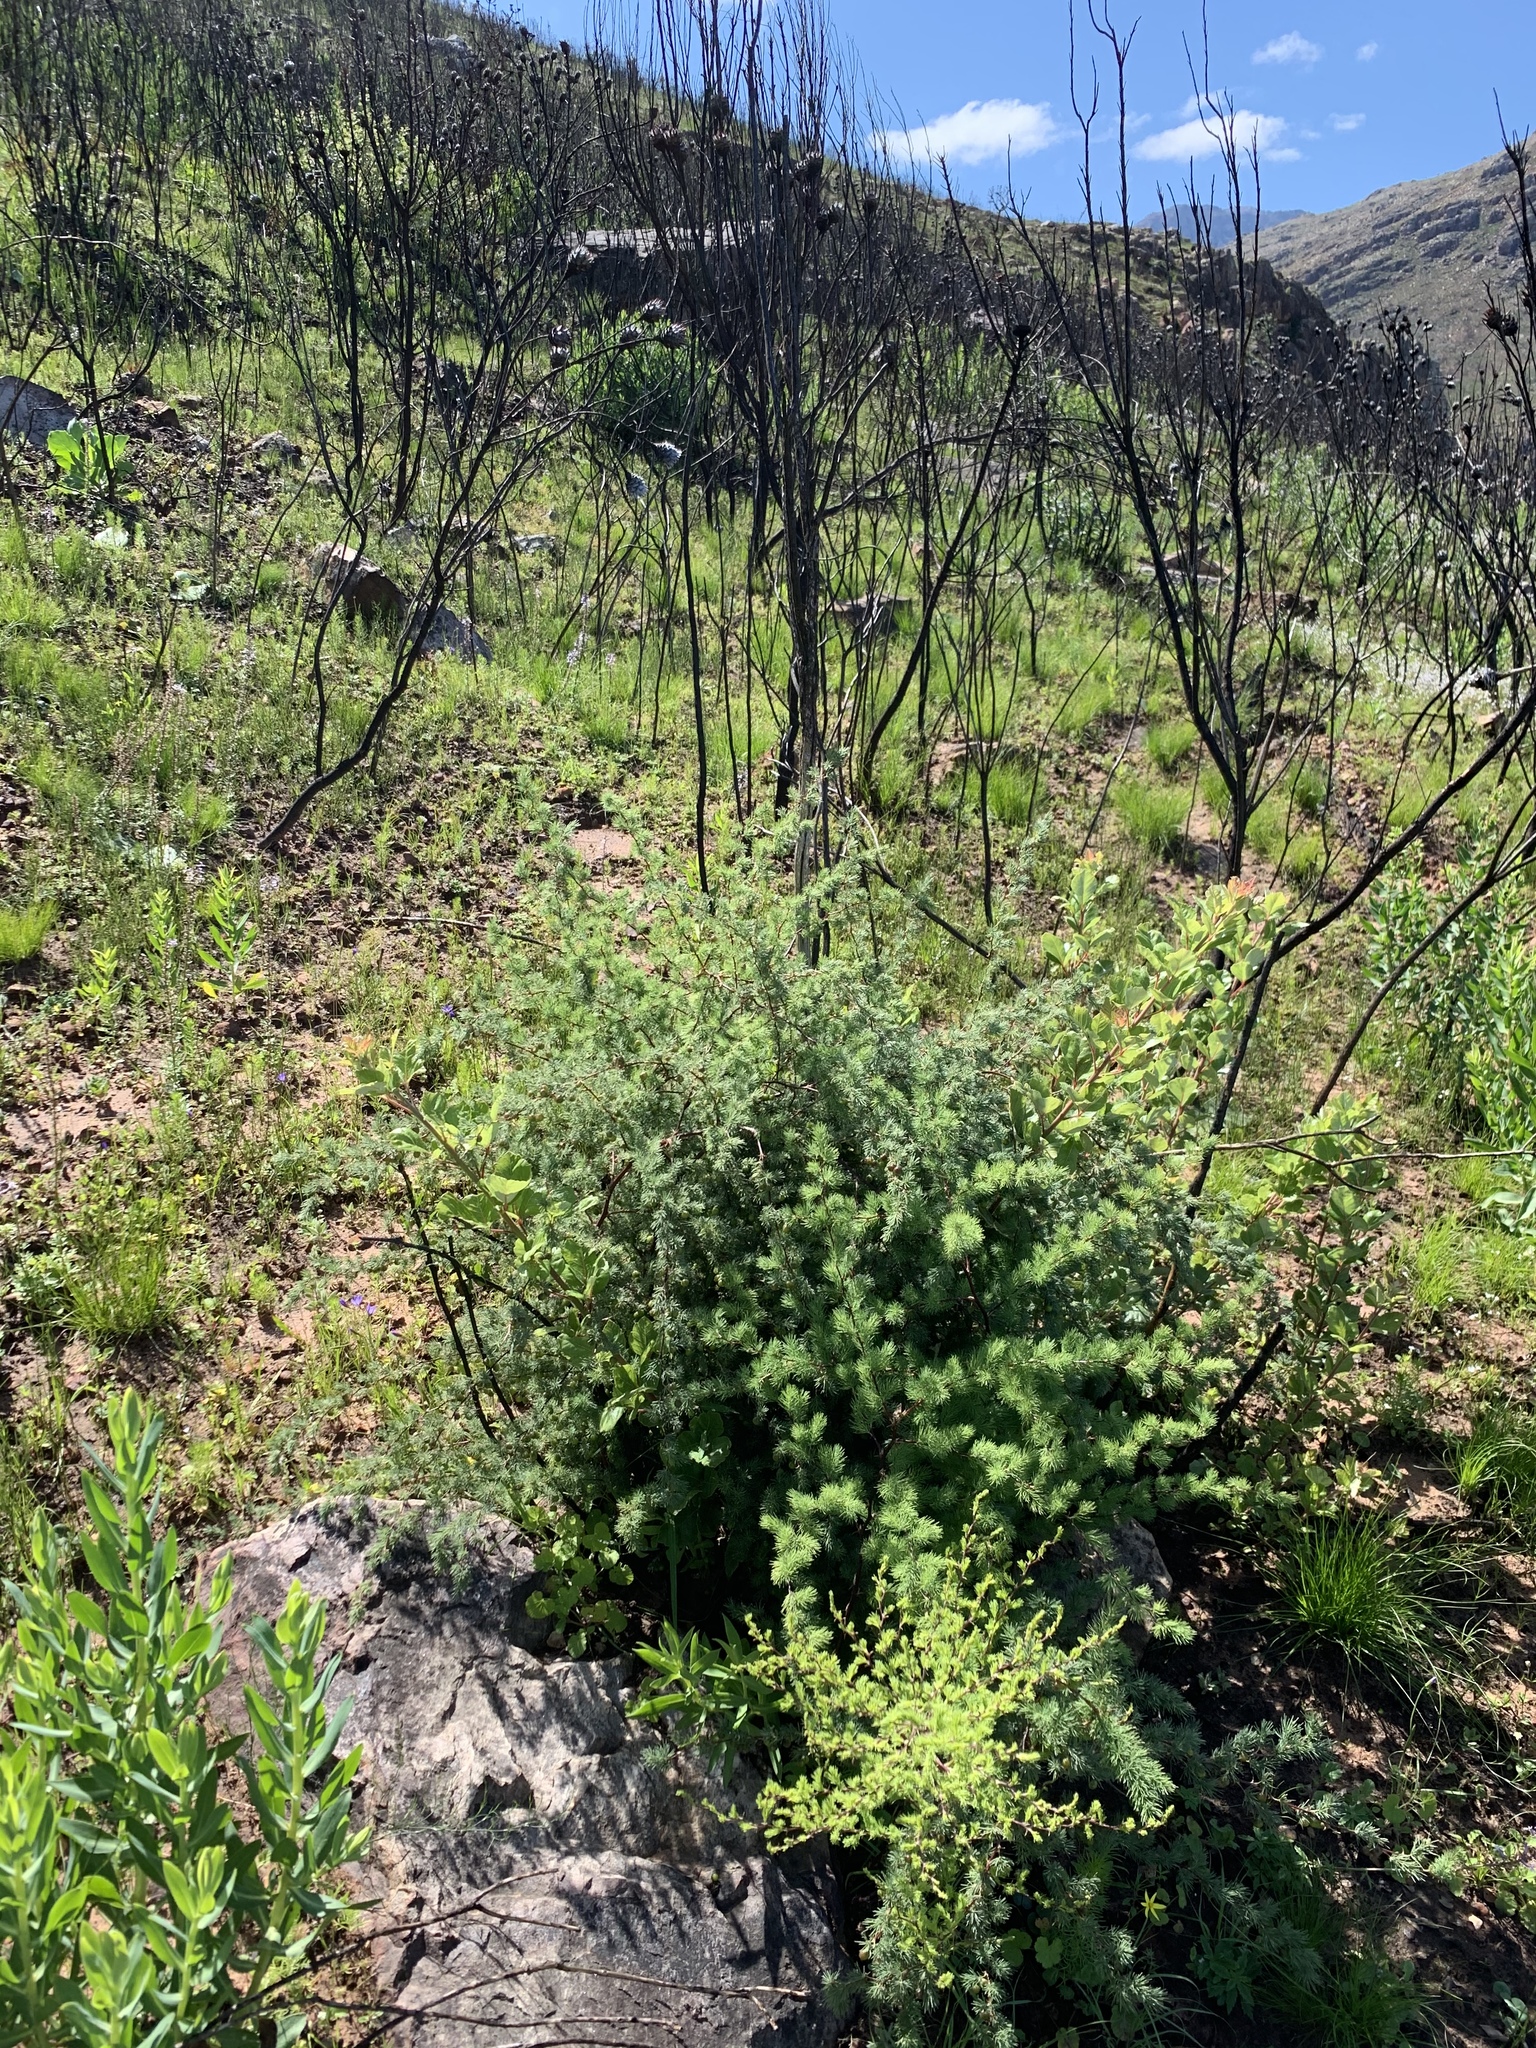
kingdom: Plantae
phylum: Tracheophyta
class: Liliopsida
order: Asparagales
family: Asparagaceae
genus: Asparagus
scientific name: Asparagus rubicundus
